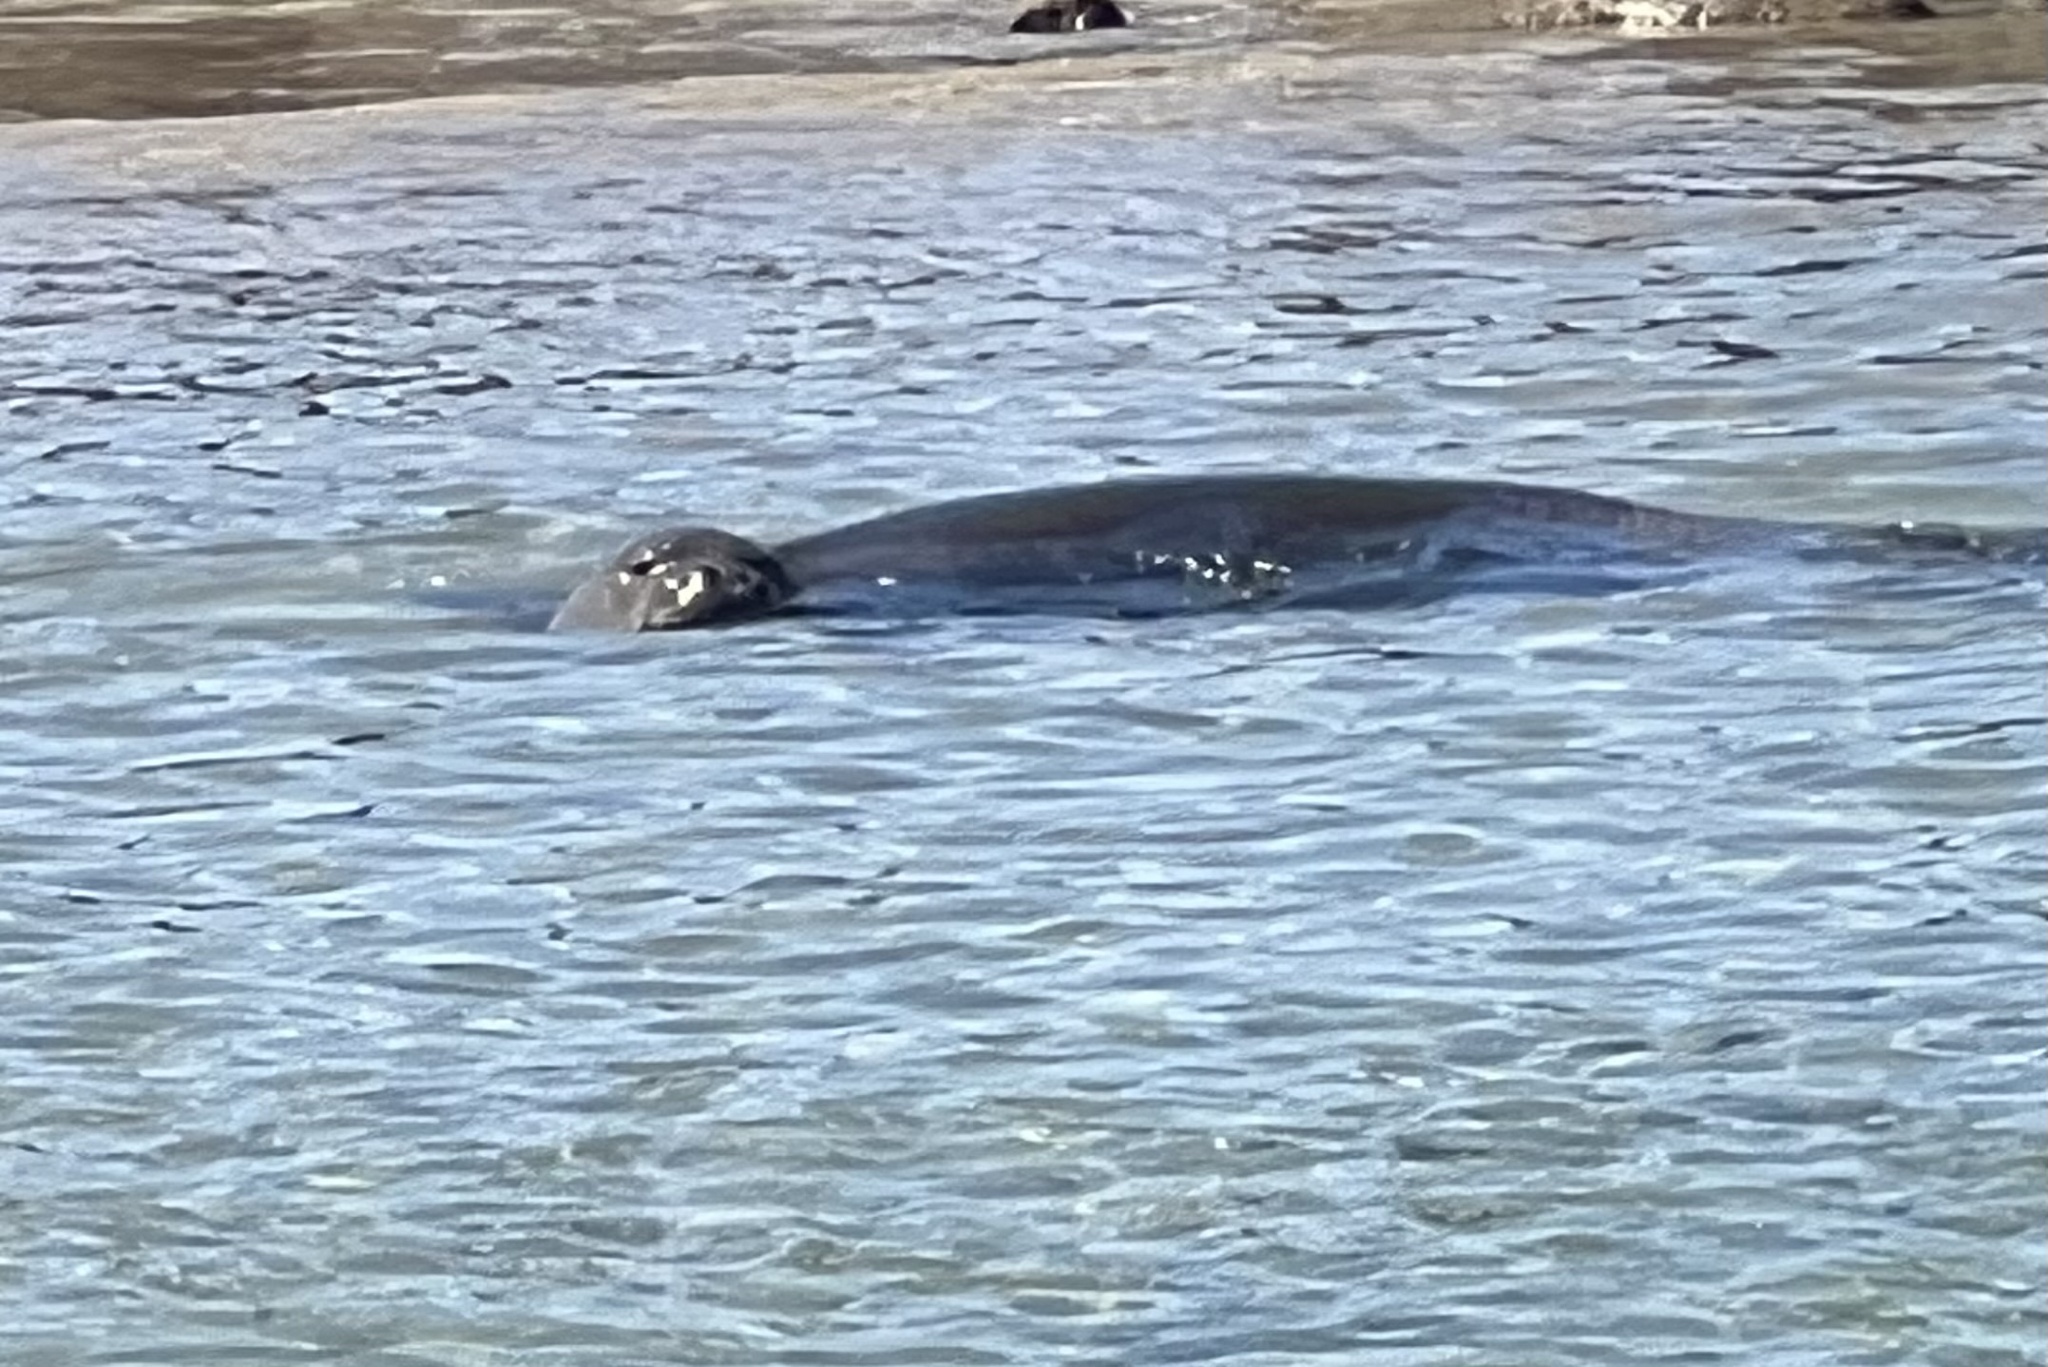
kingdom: Animalia
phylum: Chordata
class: Mammalia
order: Carnivora
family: Phocidae
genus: Neomonachus
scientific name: Neomonachus schauinslandi
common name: Hawaiian monk seal
